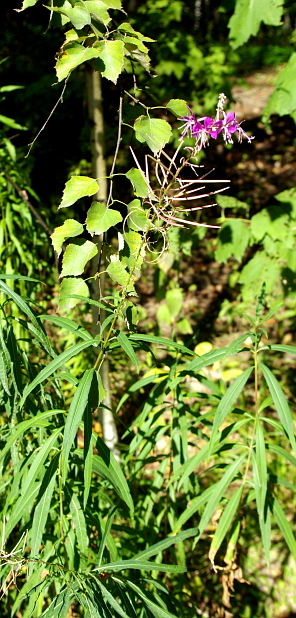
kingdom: Plantae
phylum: Tracheophyta
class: Magnoliopsida
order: Myrtales
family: Onagraceae
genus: Chamaenerion
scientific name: Chamaenerion angustifolium
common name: Fireweed
